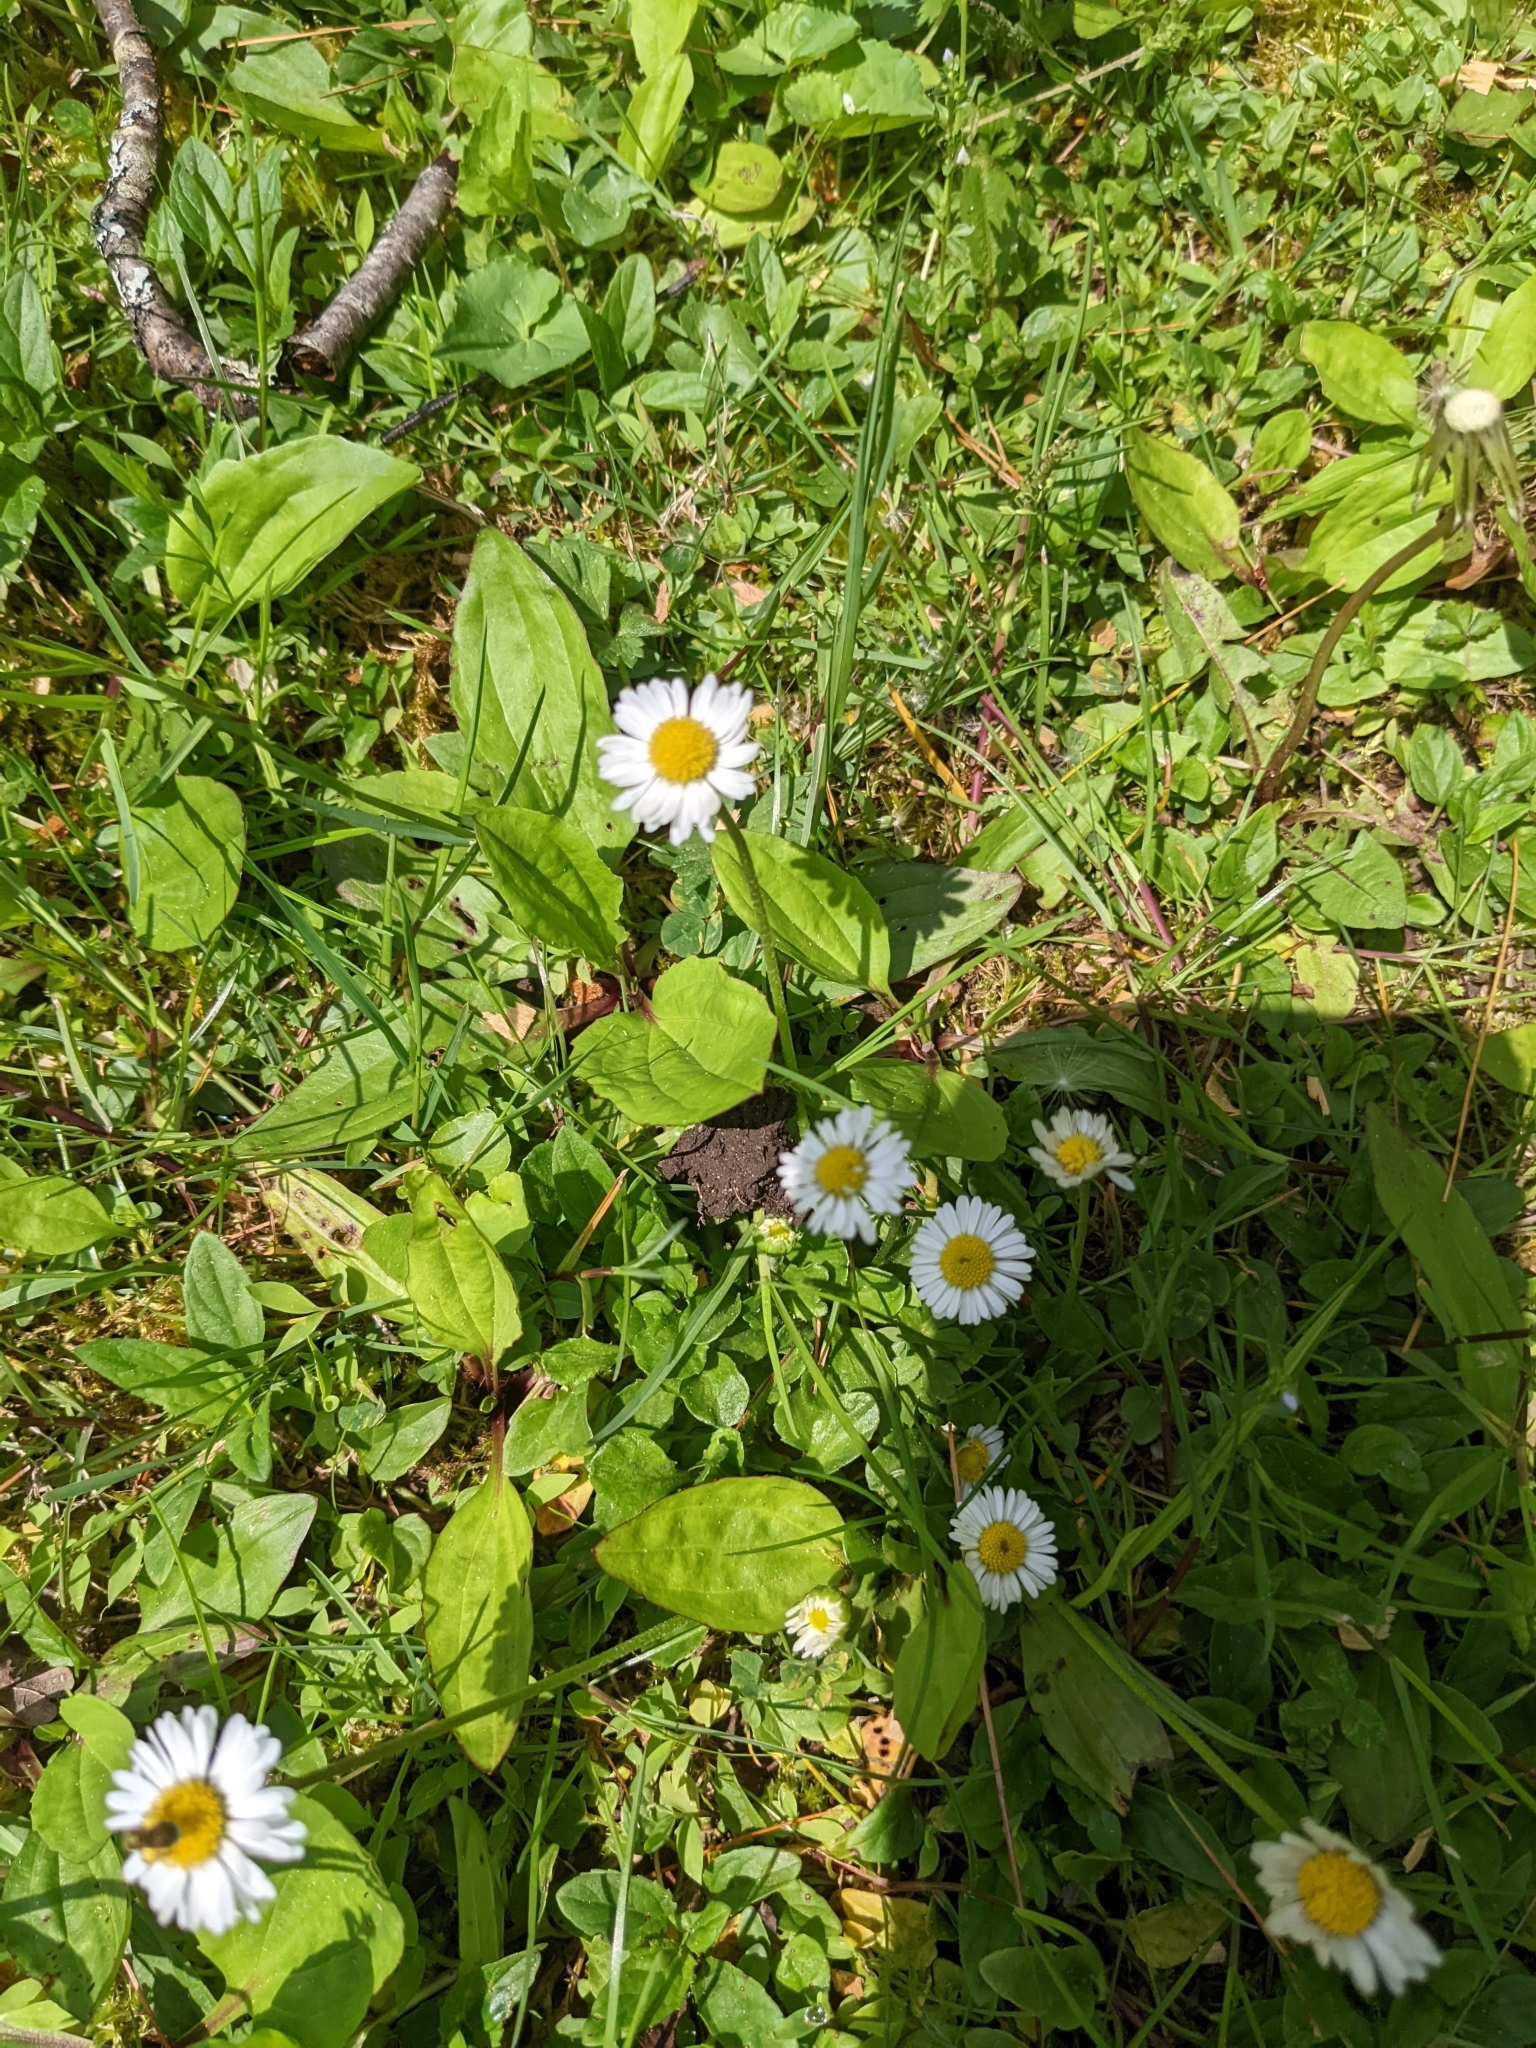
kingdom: Plantae
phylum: Tracheophyta
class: Magnoliopsida
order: Asterales
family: Asteraceae
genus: Bellis
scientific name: Bellis perennis
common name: Lawndaisy
